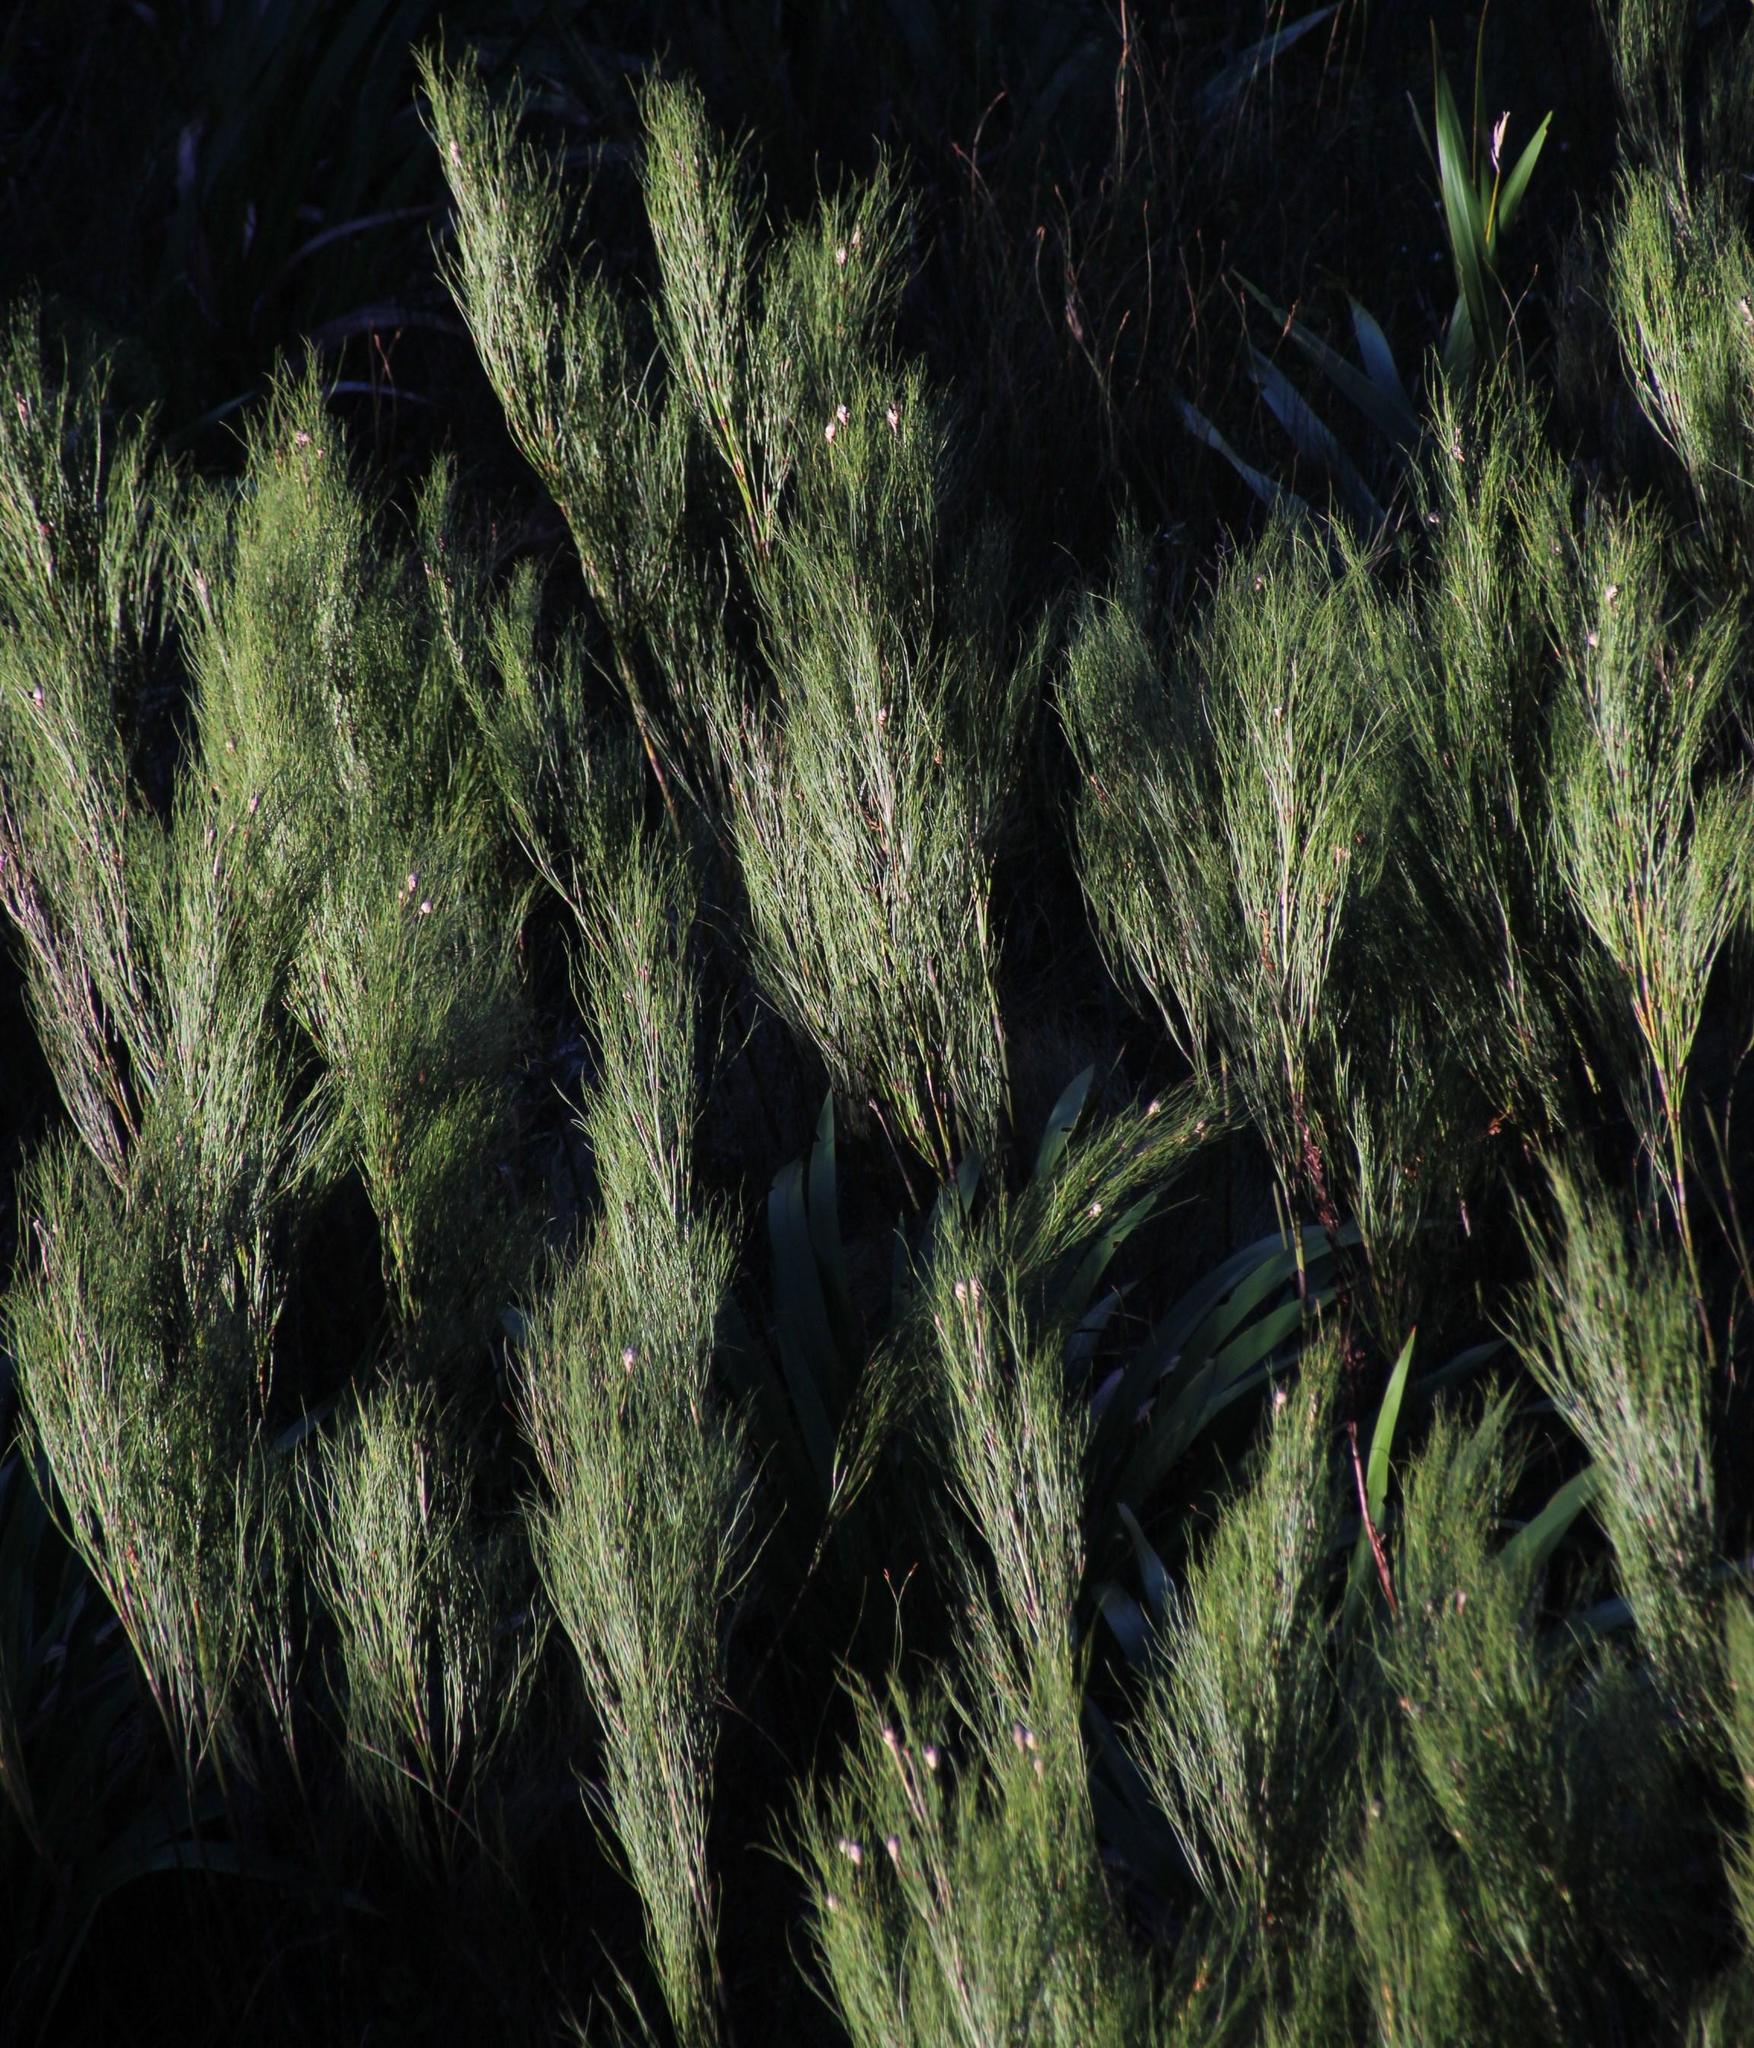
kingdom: Plantae
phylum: Tracheophyta
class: Liliopsida
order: Poales
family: Restionaceae
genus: Cannomois
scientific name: Cannomois virgata
